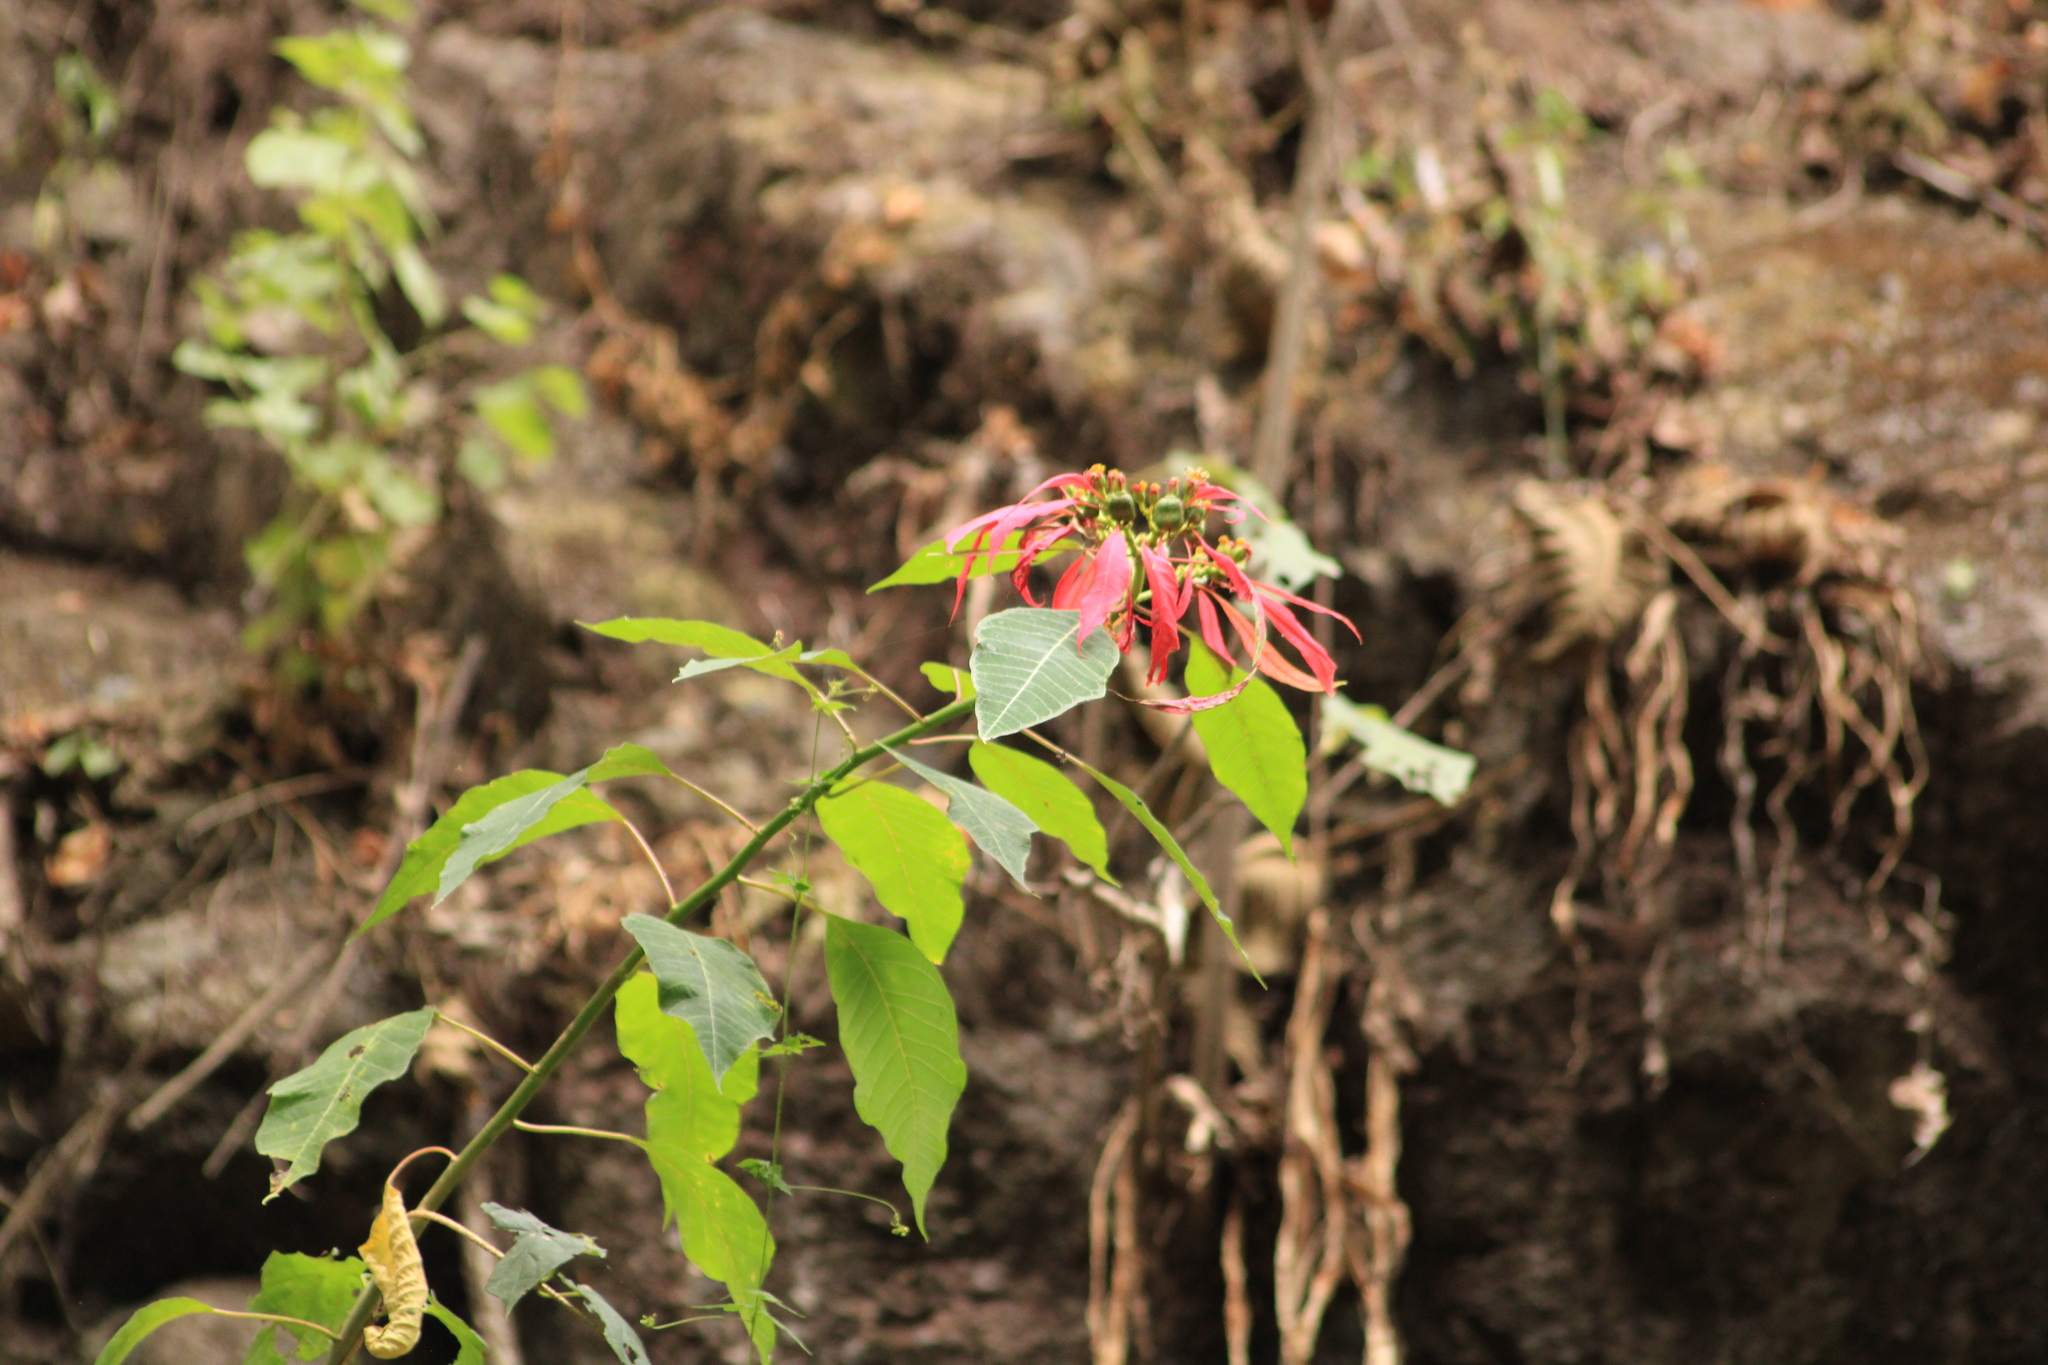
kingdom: Plantae
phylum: Tracheophyta
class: Magnoliopsida
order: Malpighiales
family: Euphorbiaceae
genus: Euphorbia
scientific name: Euphorbia pulcherrima
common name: Christmas-flower
